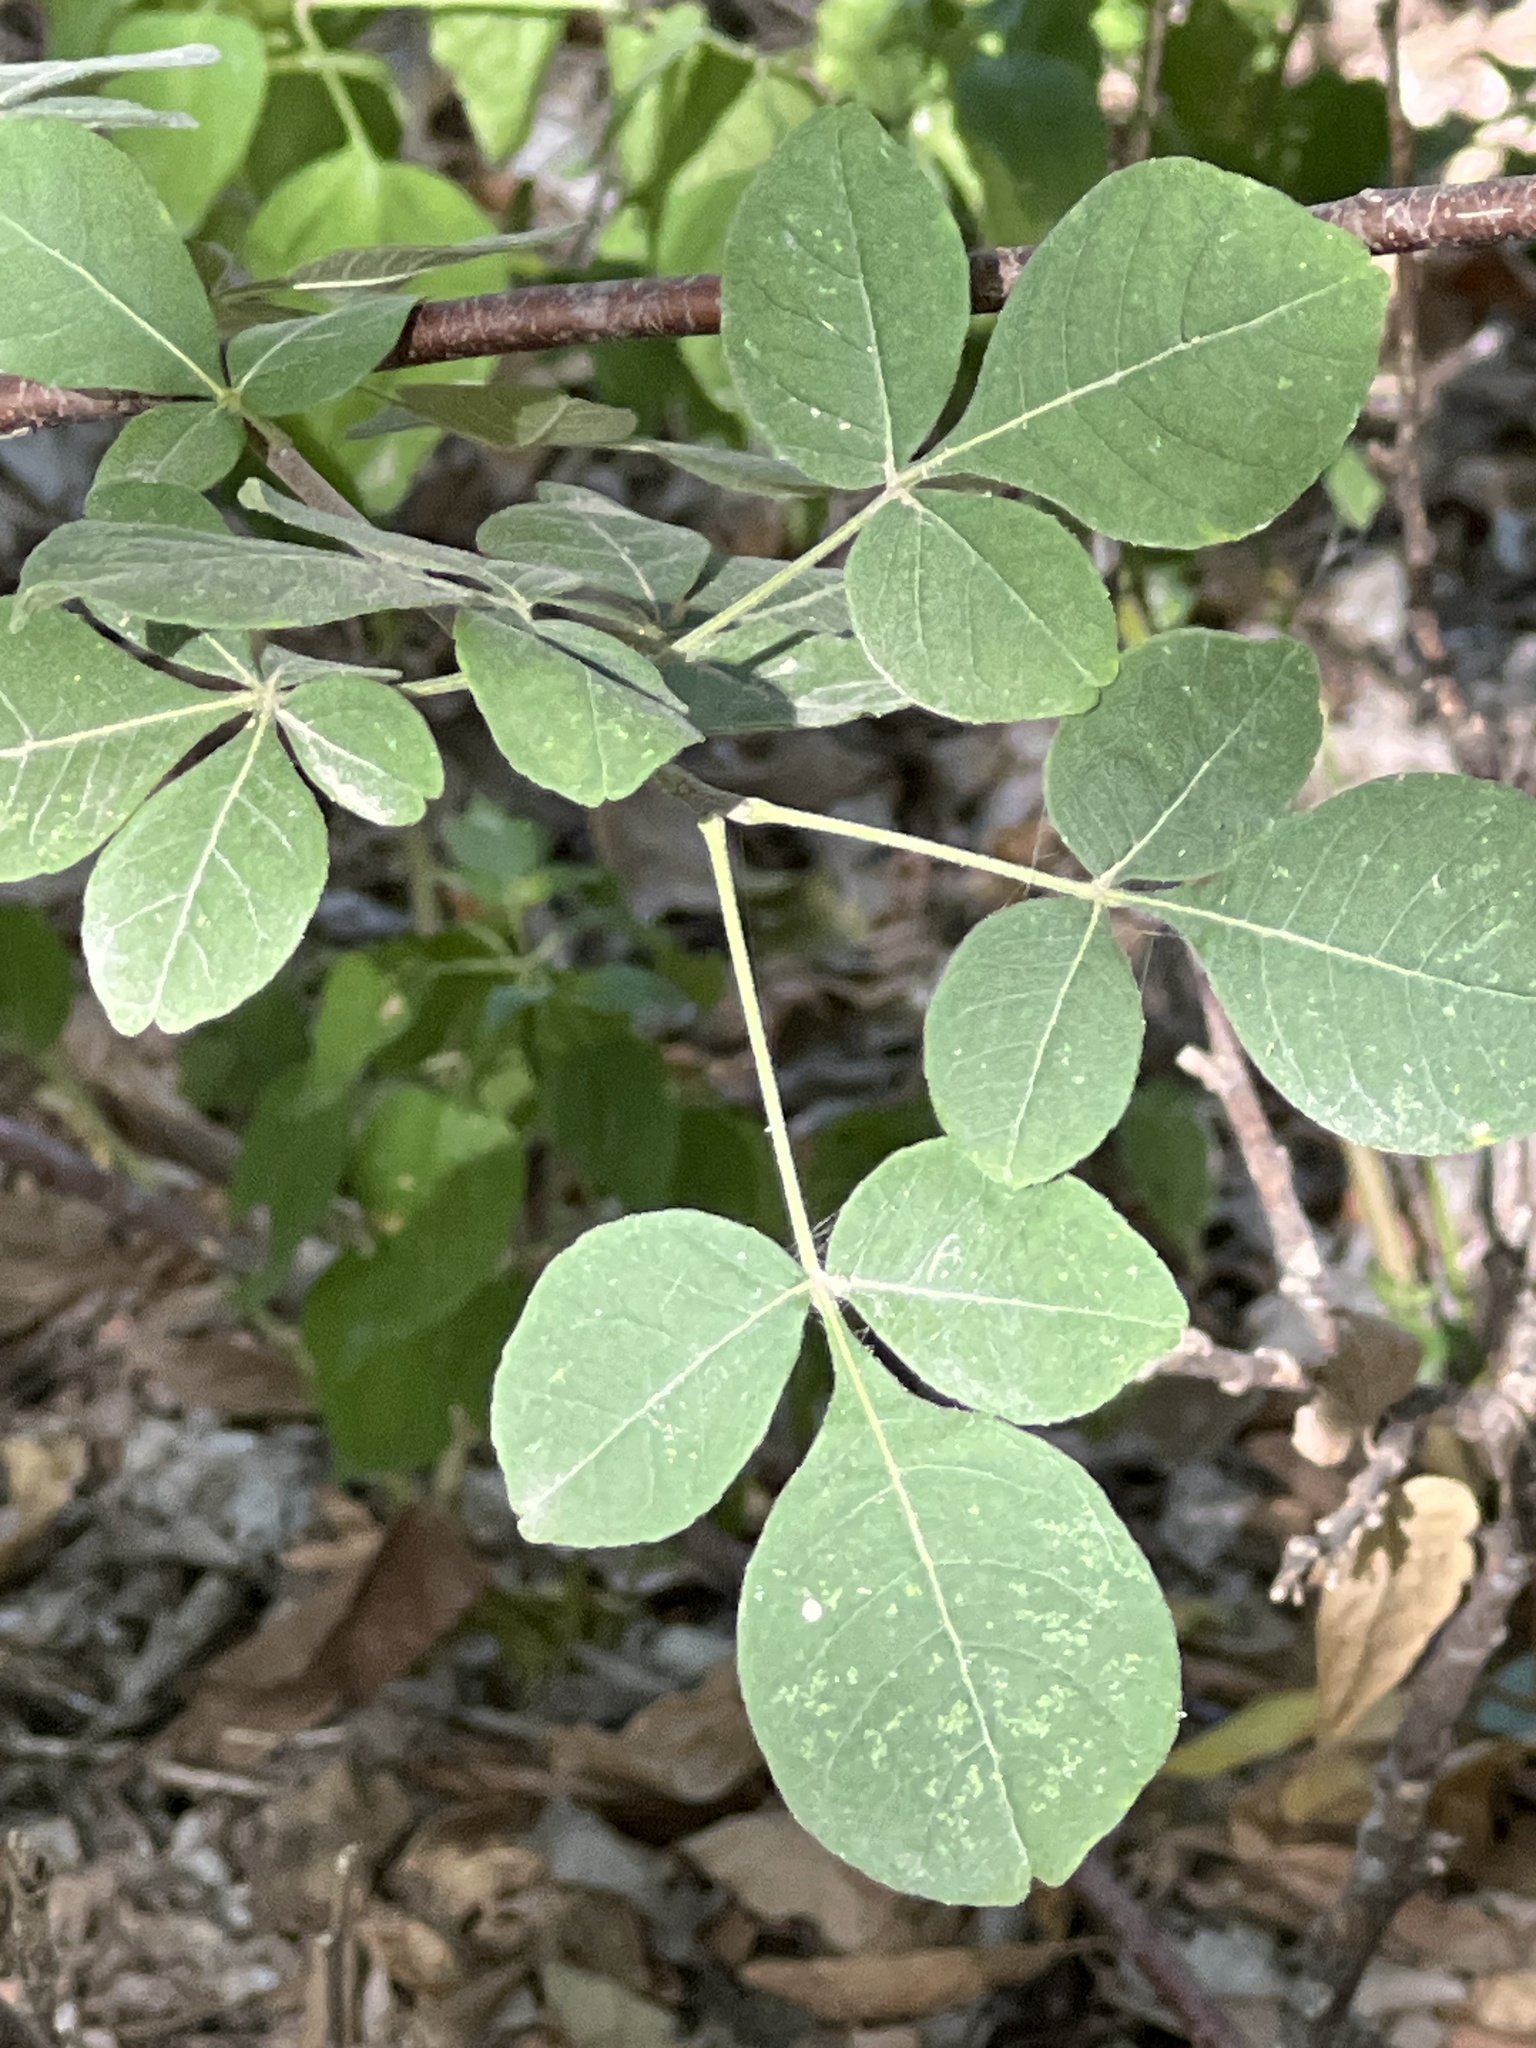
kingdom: Plantae
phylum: Tracheophyta
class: Magnoliopsida
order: Sapindales
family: Rutaceae
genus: Ptelea
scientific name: Ptelea trifoliata
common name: Common hop-tree
